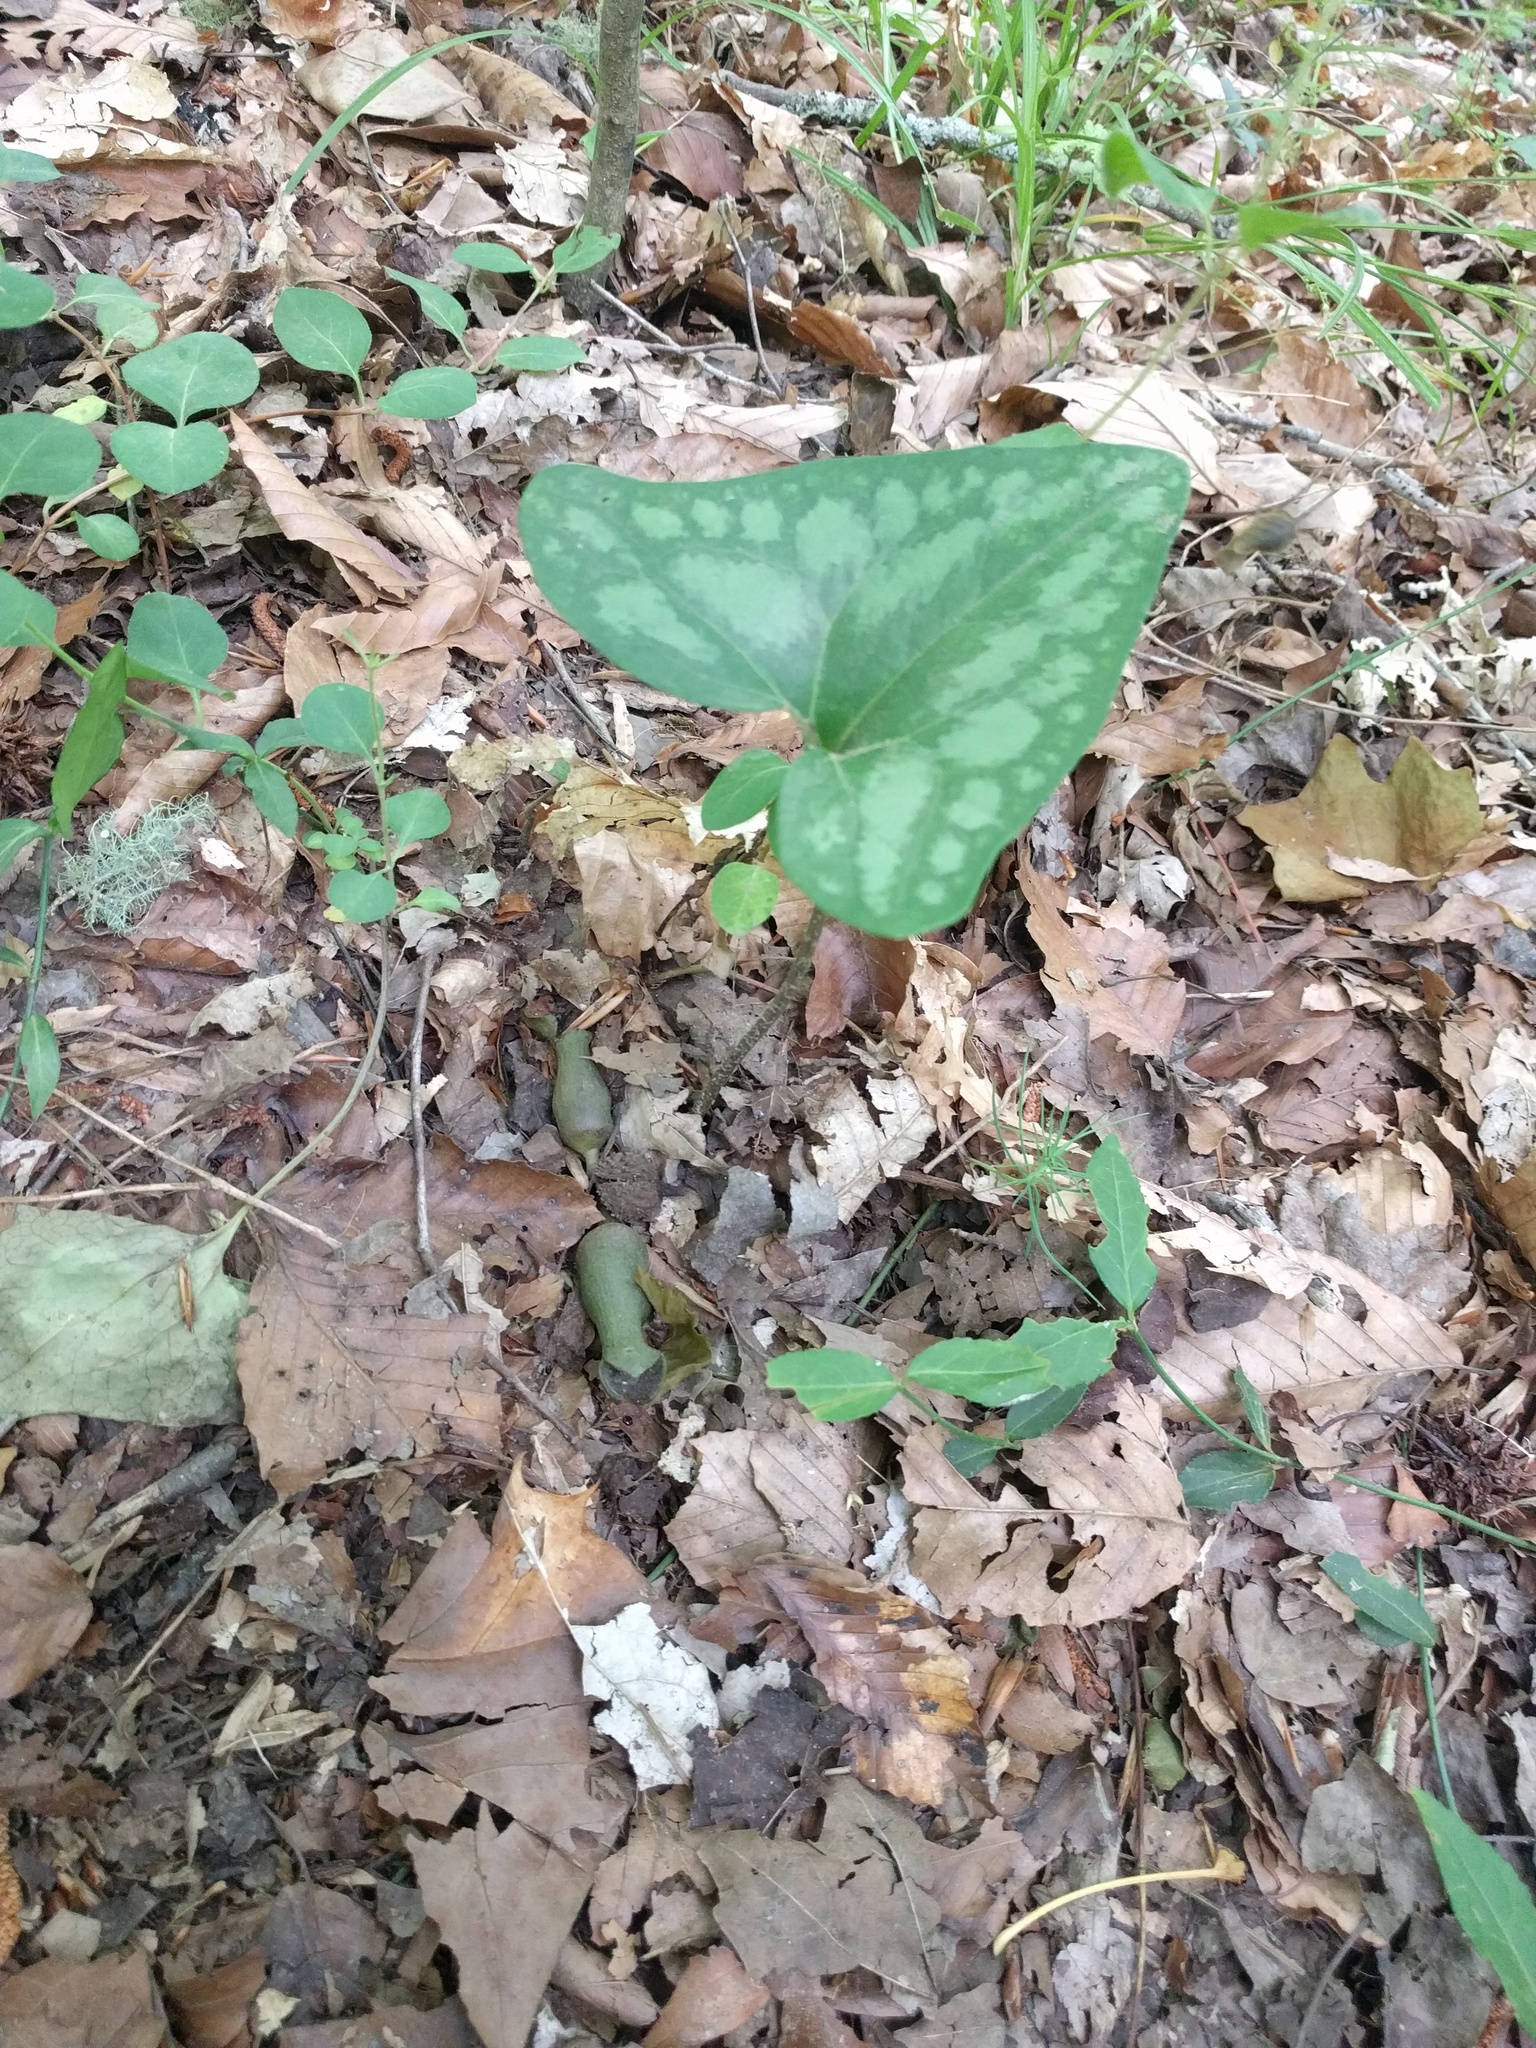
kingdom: Plantae
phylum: Tracheophyta
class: Magnoliopsida
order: Piperales
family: Aristolochiaceae
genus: Hexastylis
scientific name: Hexastylis arifolia
